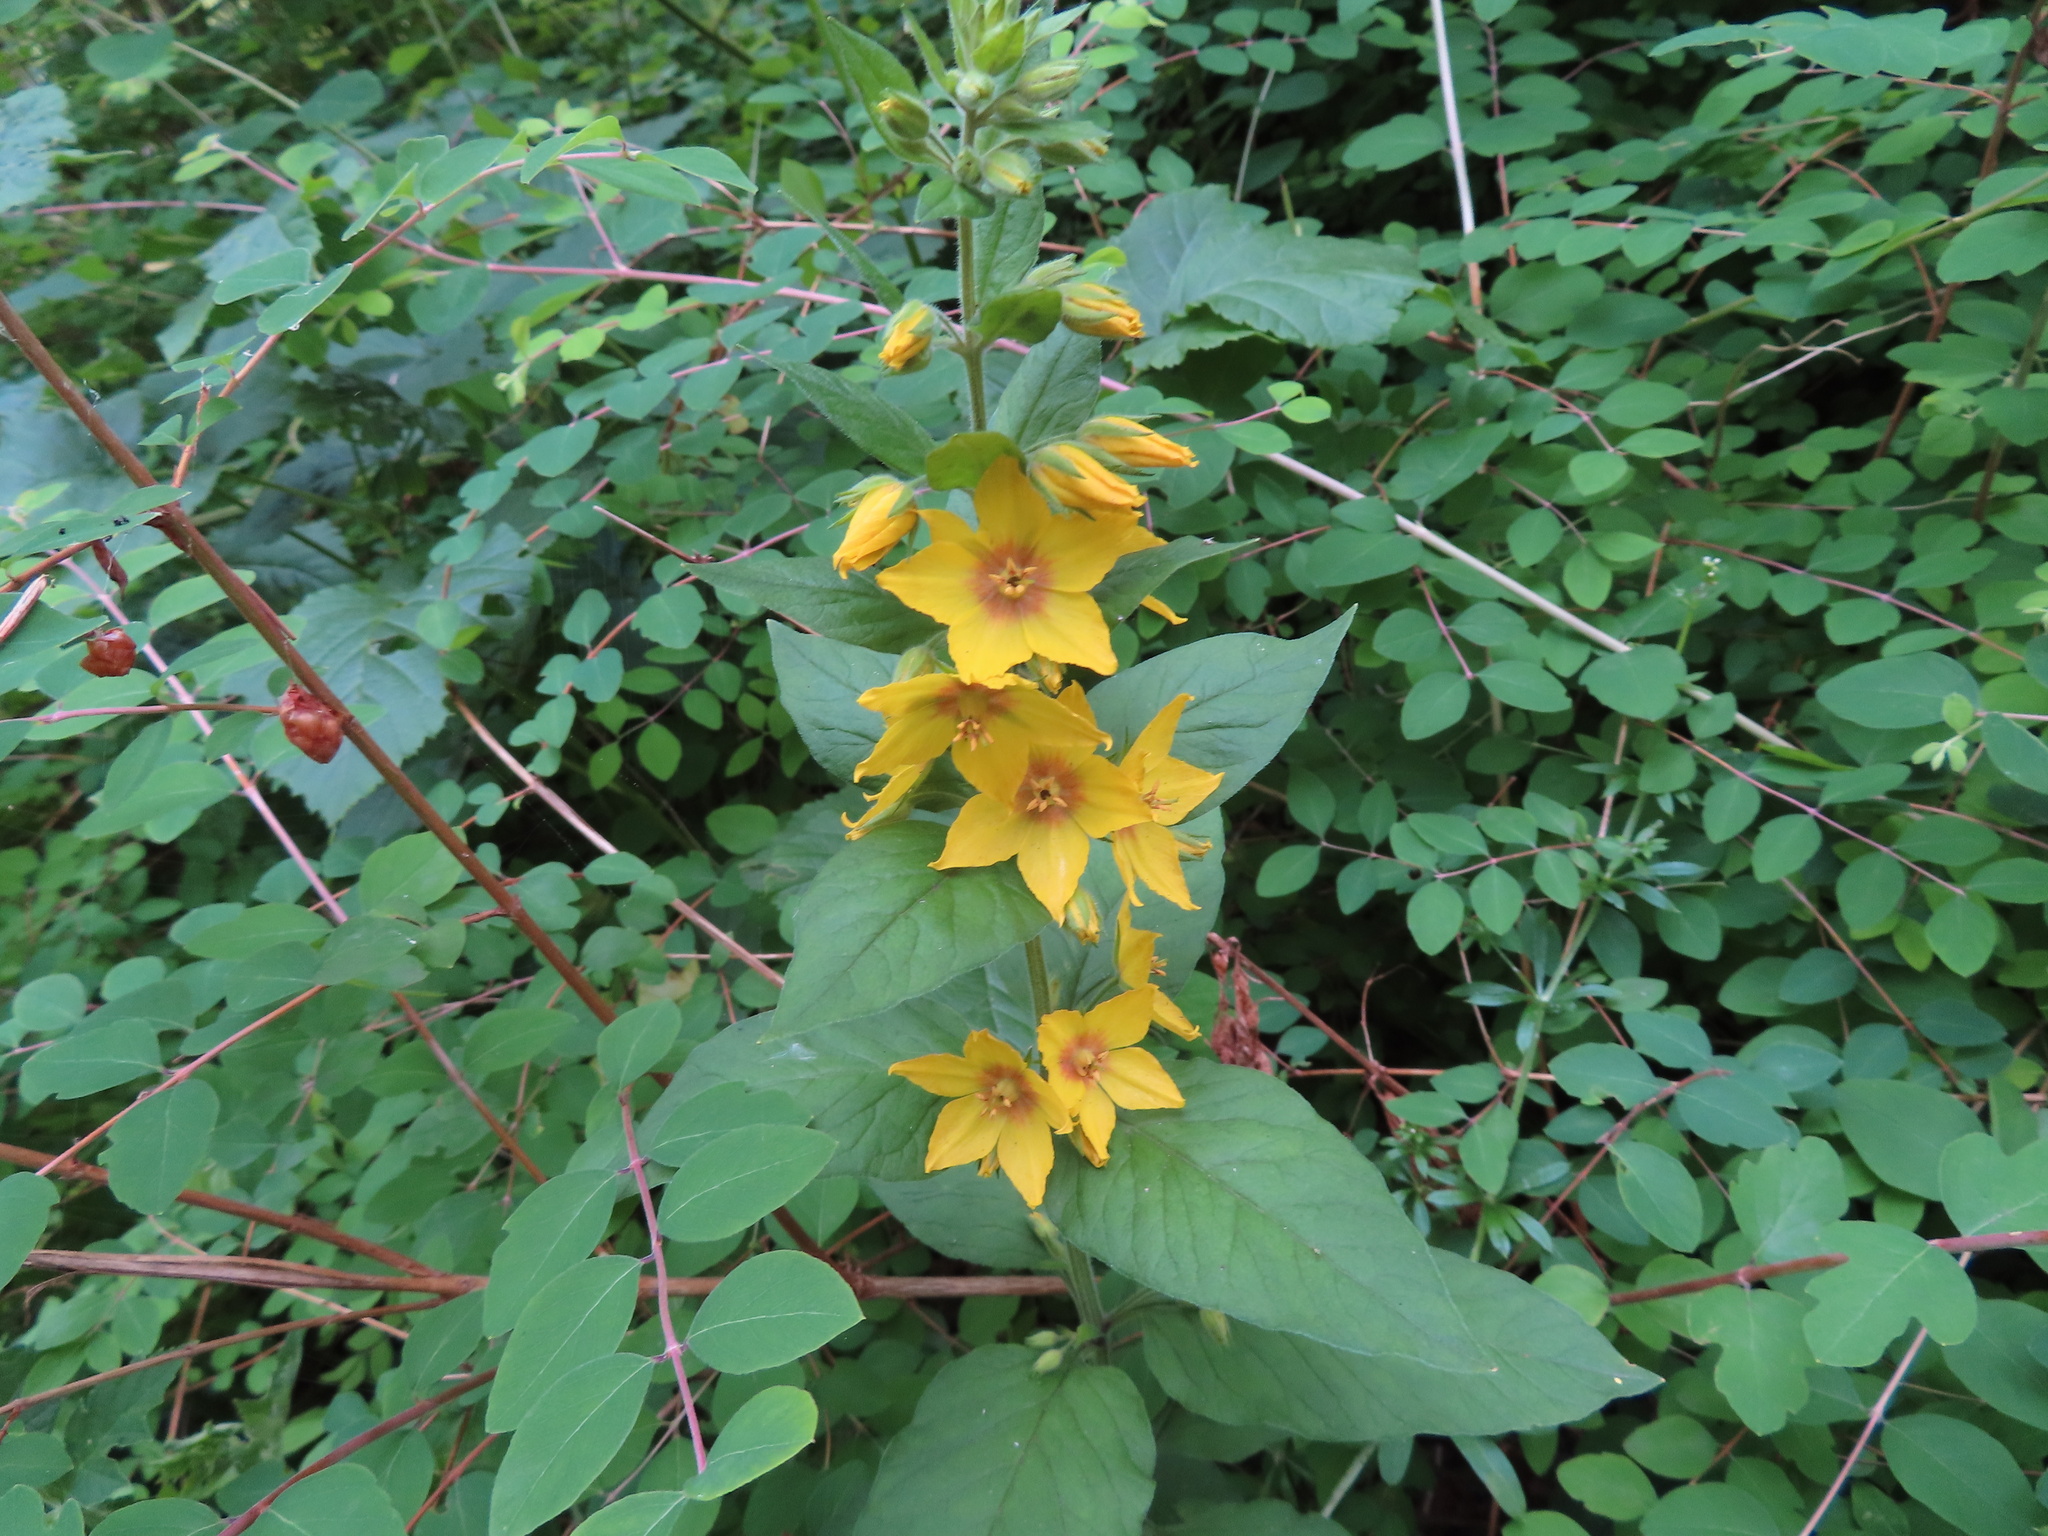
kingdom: Plantae
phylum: Tracheophyta
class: Magnoliopsida
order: Ericales
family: Primulaceae
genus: Lysimachia
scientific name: Lysimachia punctata
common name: Dotted loosestrife
